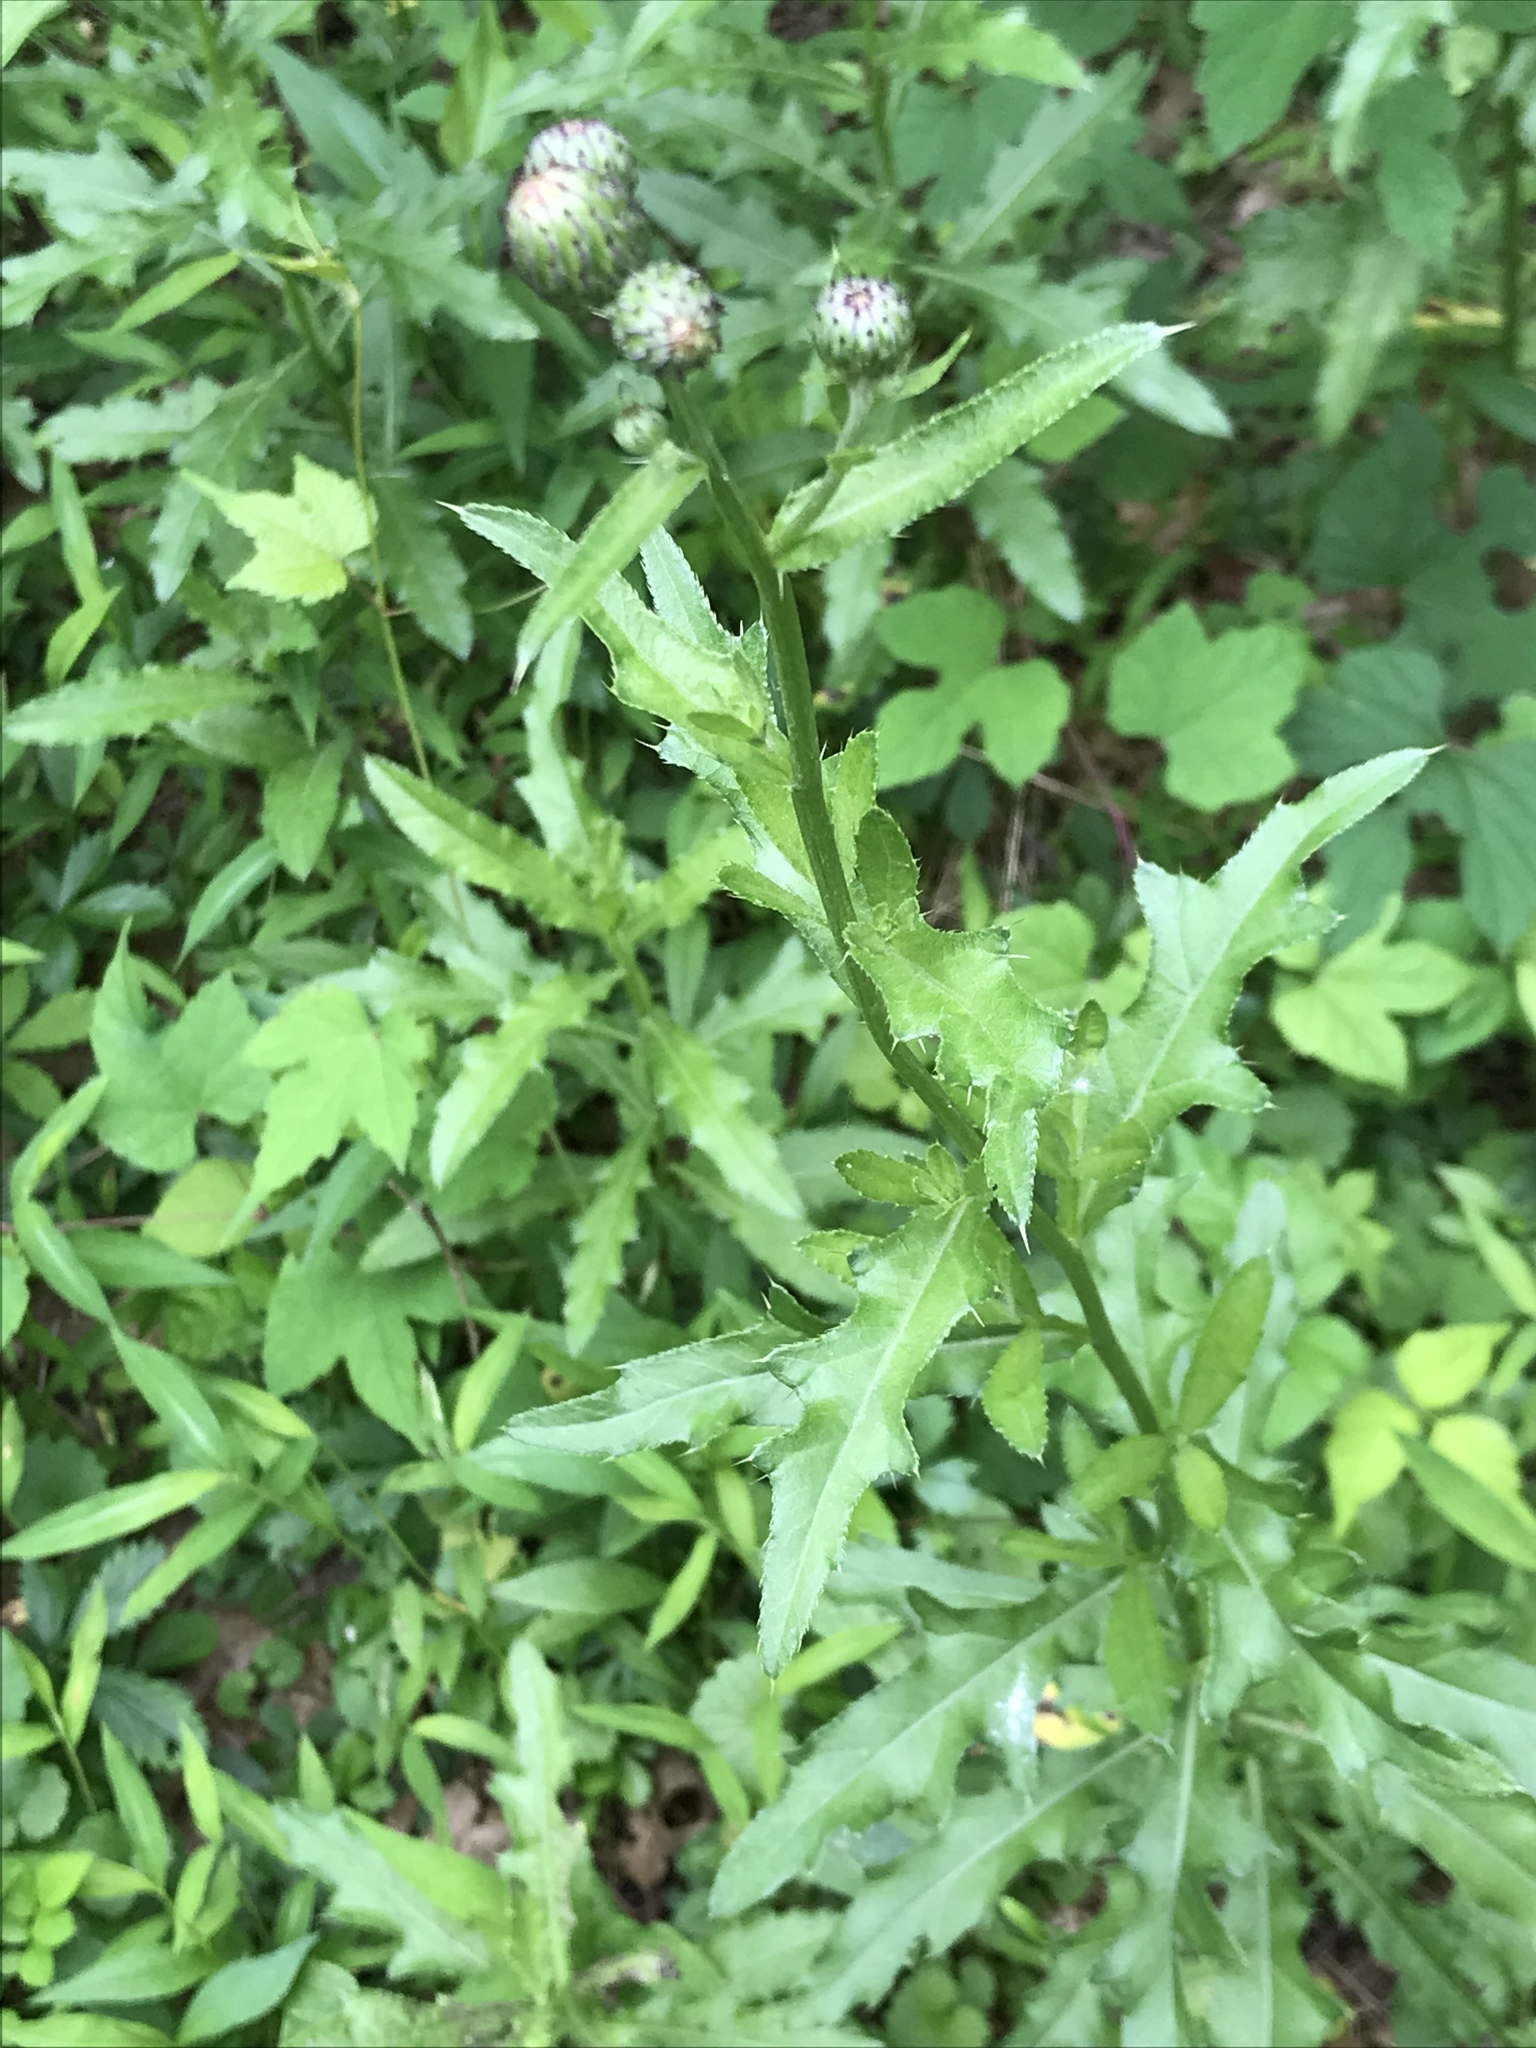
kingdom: Plantae
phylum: Tracheophyta
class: Magnoliopsida
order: Asterales
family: Asteraceae
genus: Cirsium
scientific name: Cirsium arvense
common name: Creeping thistle
